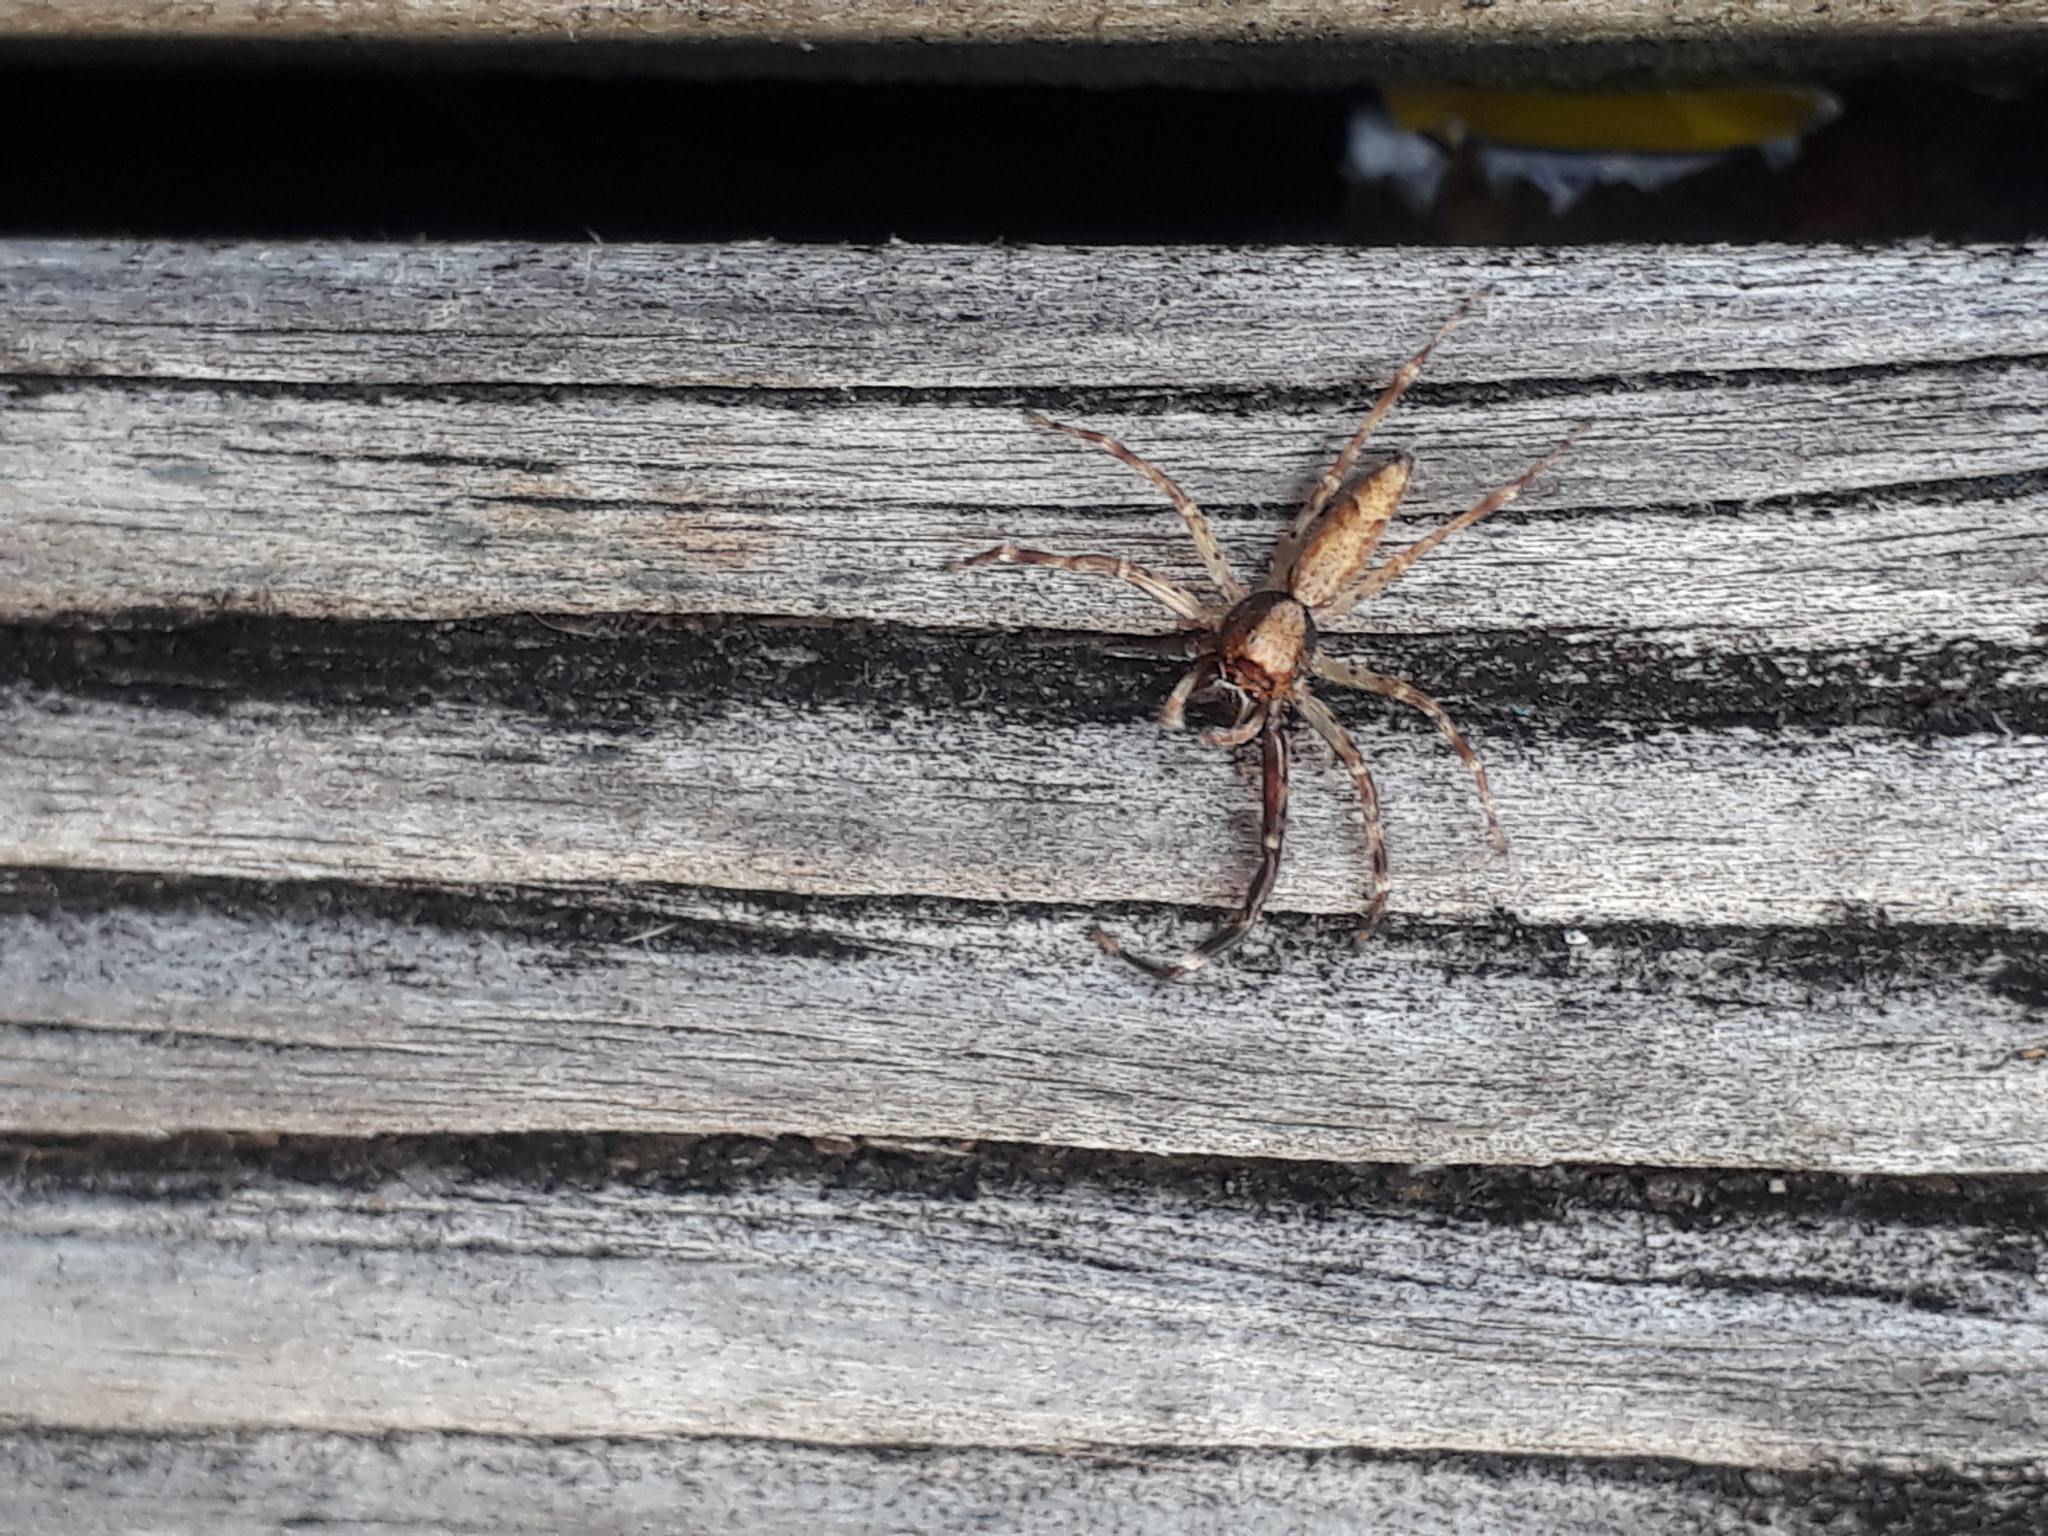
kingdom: Animalia
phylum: Arthropoda
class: Arachnida
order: Araneae
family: Salticidae
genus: Helpis
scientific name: Helpis minitabunda
